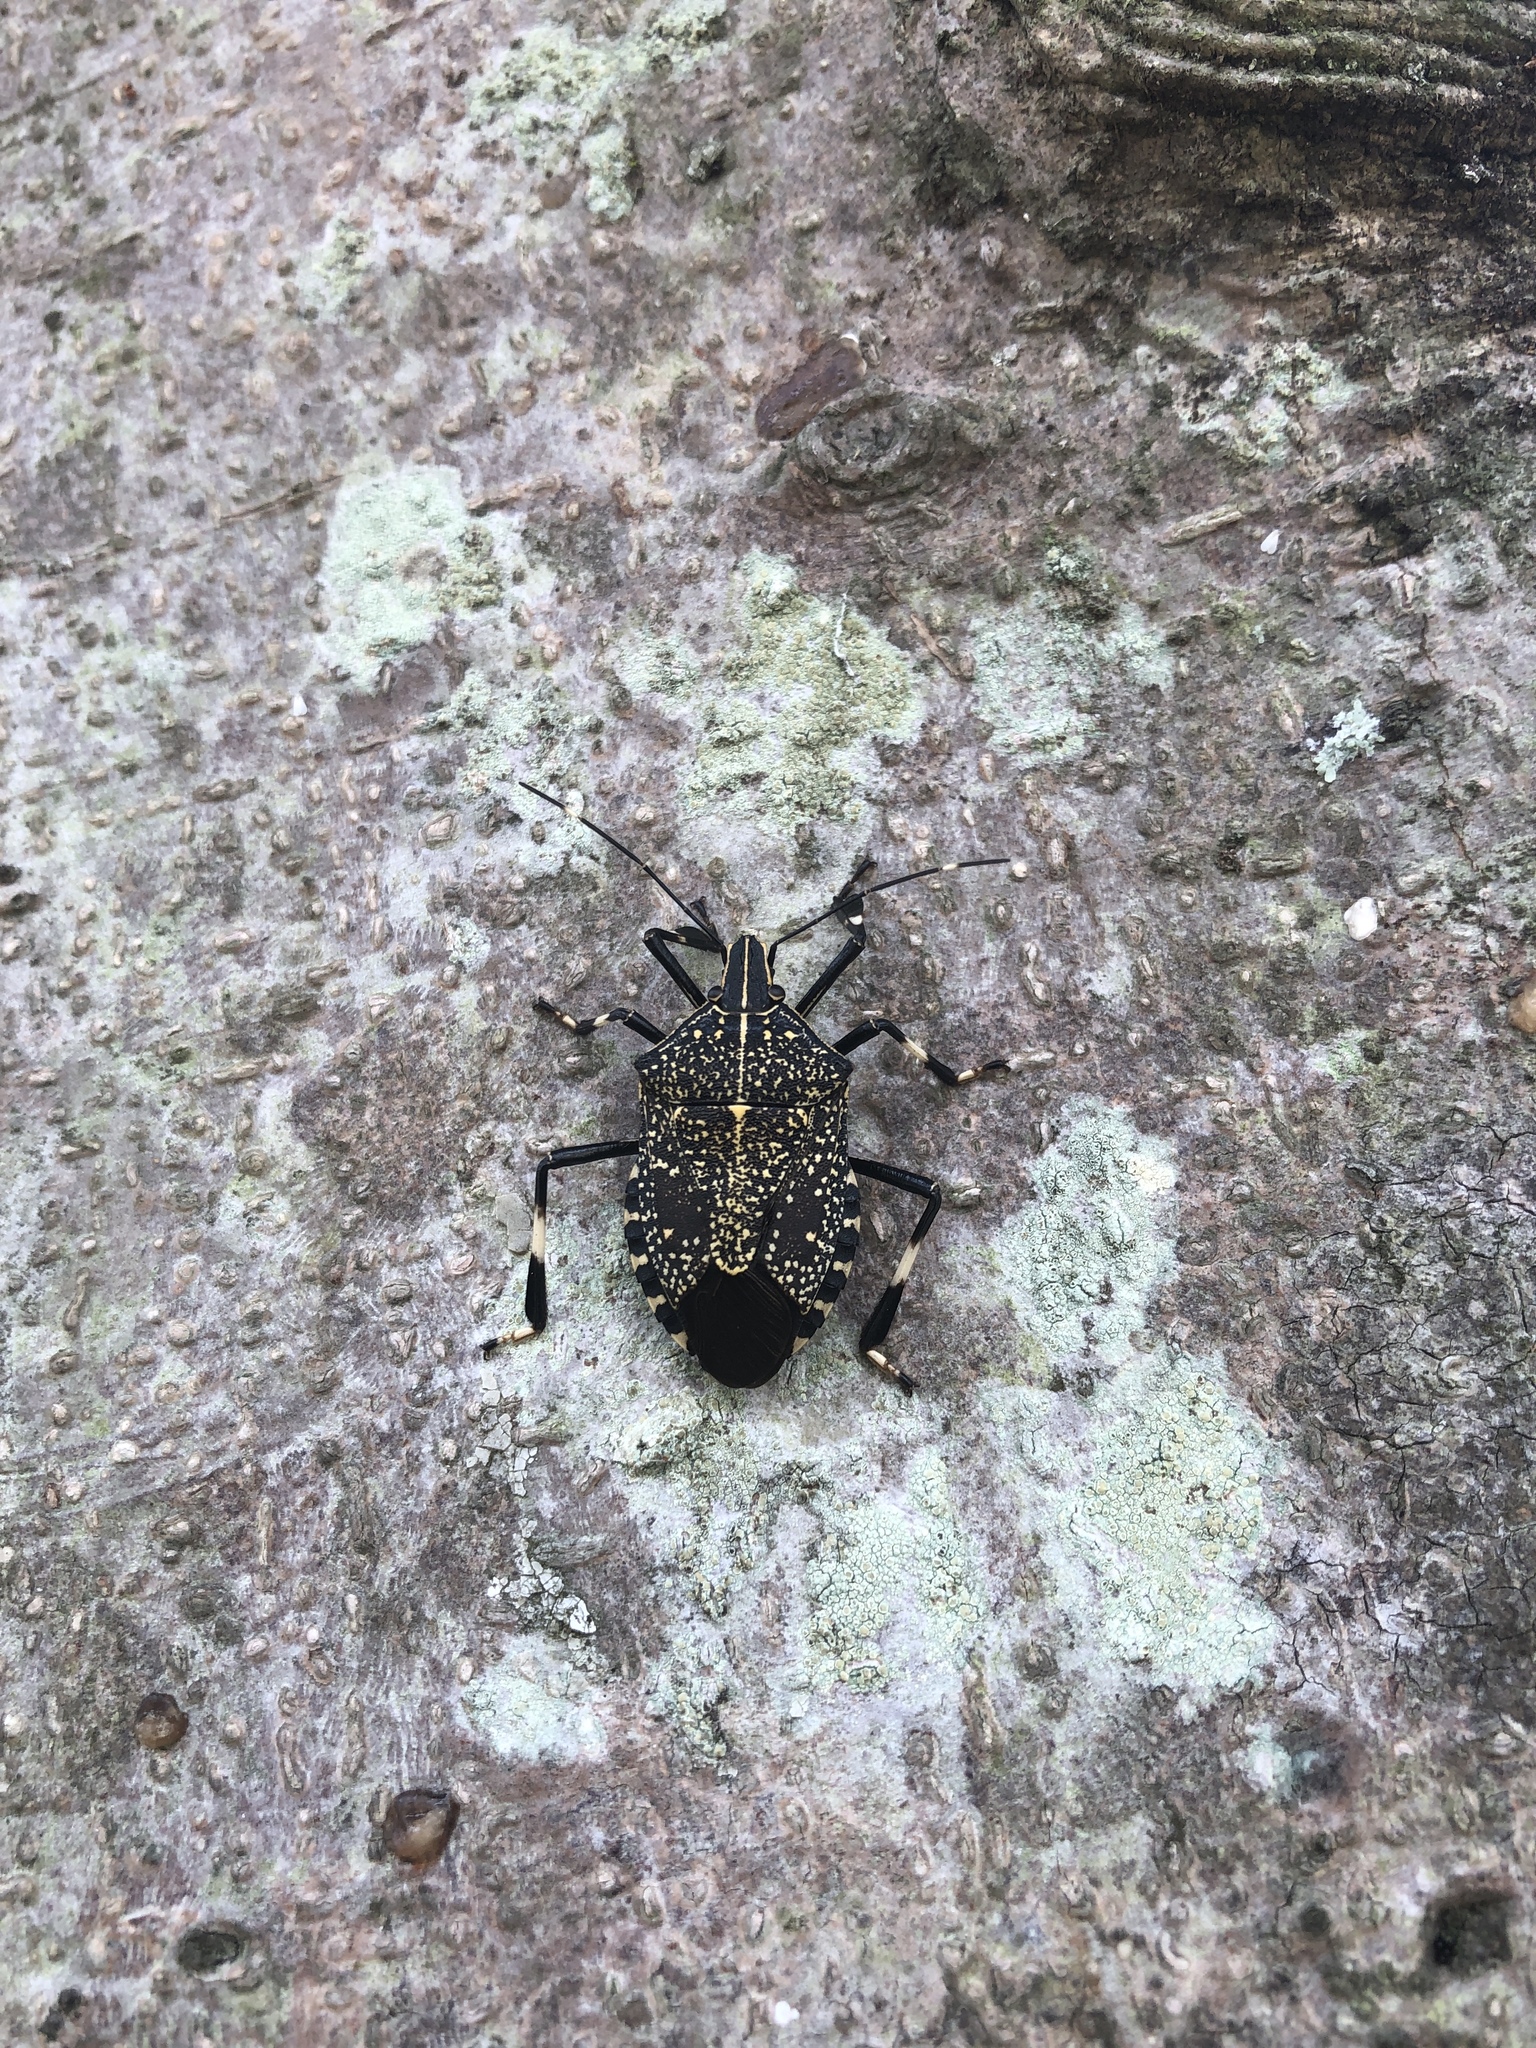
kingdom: Animalia
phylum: Arthropoda
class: Insecta
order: Hemiptera
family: Pentatomidae
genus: Erthesina
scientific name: Erthesina fullo
